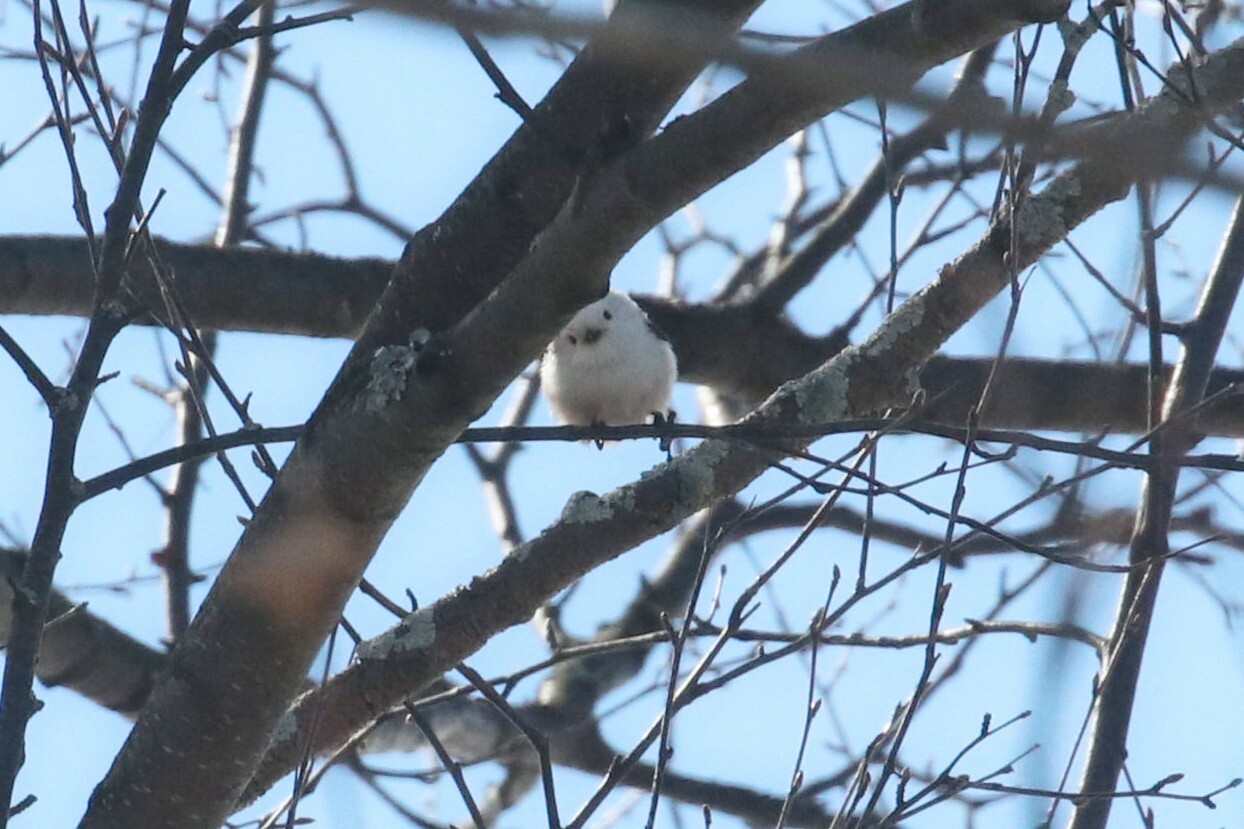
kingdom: Animalia
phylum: Chordata
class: Aves
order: Passeriformes
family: Aegithalidae
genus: Aegithalos
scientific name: Aegithalos caudatus
